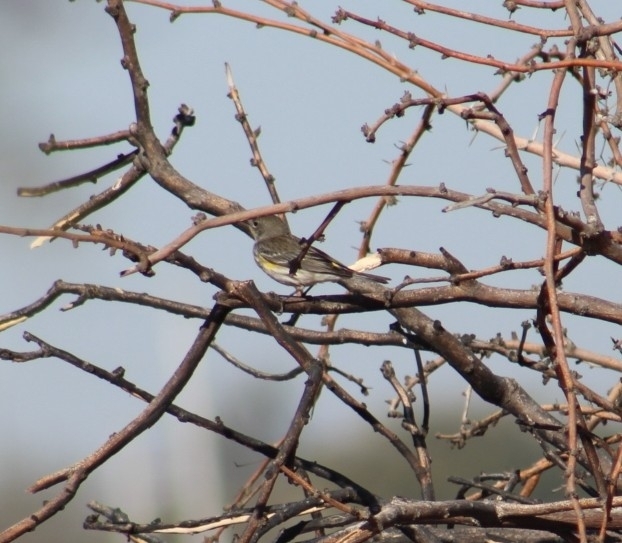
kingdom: Animalia
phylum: Chordata
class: Aves
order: Passeriformes
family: Parulidae
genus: Setophaga
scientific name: Setophaga coronata
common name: Myrtle warbler
